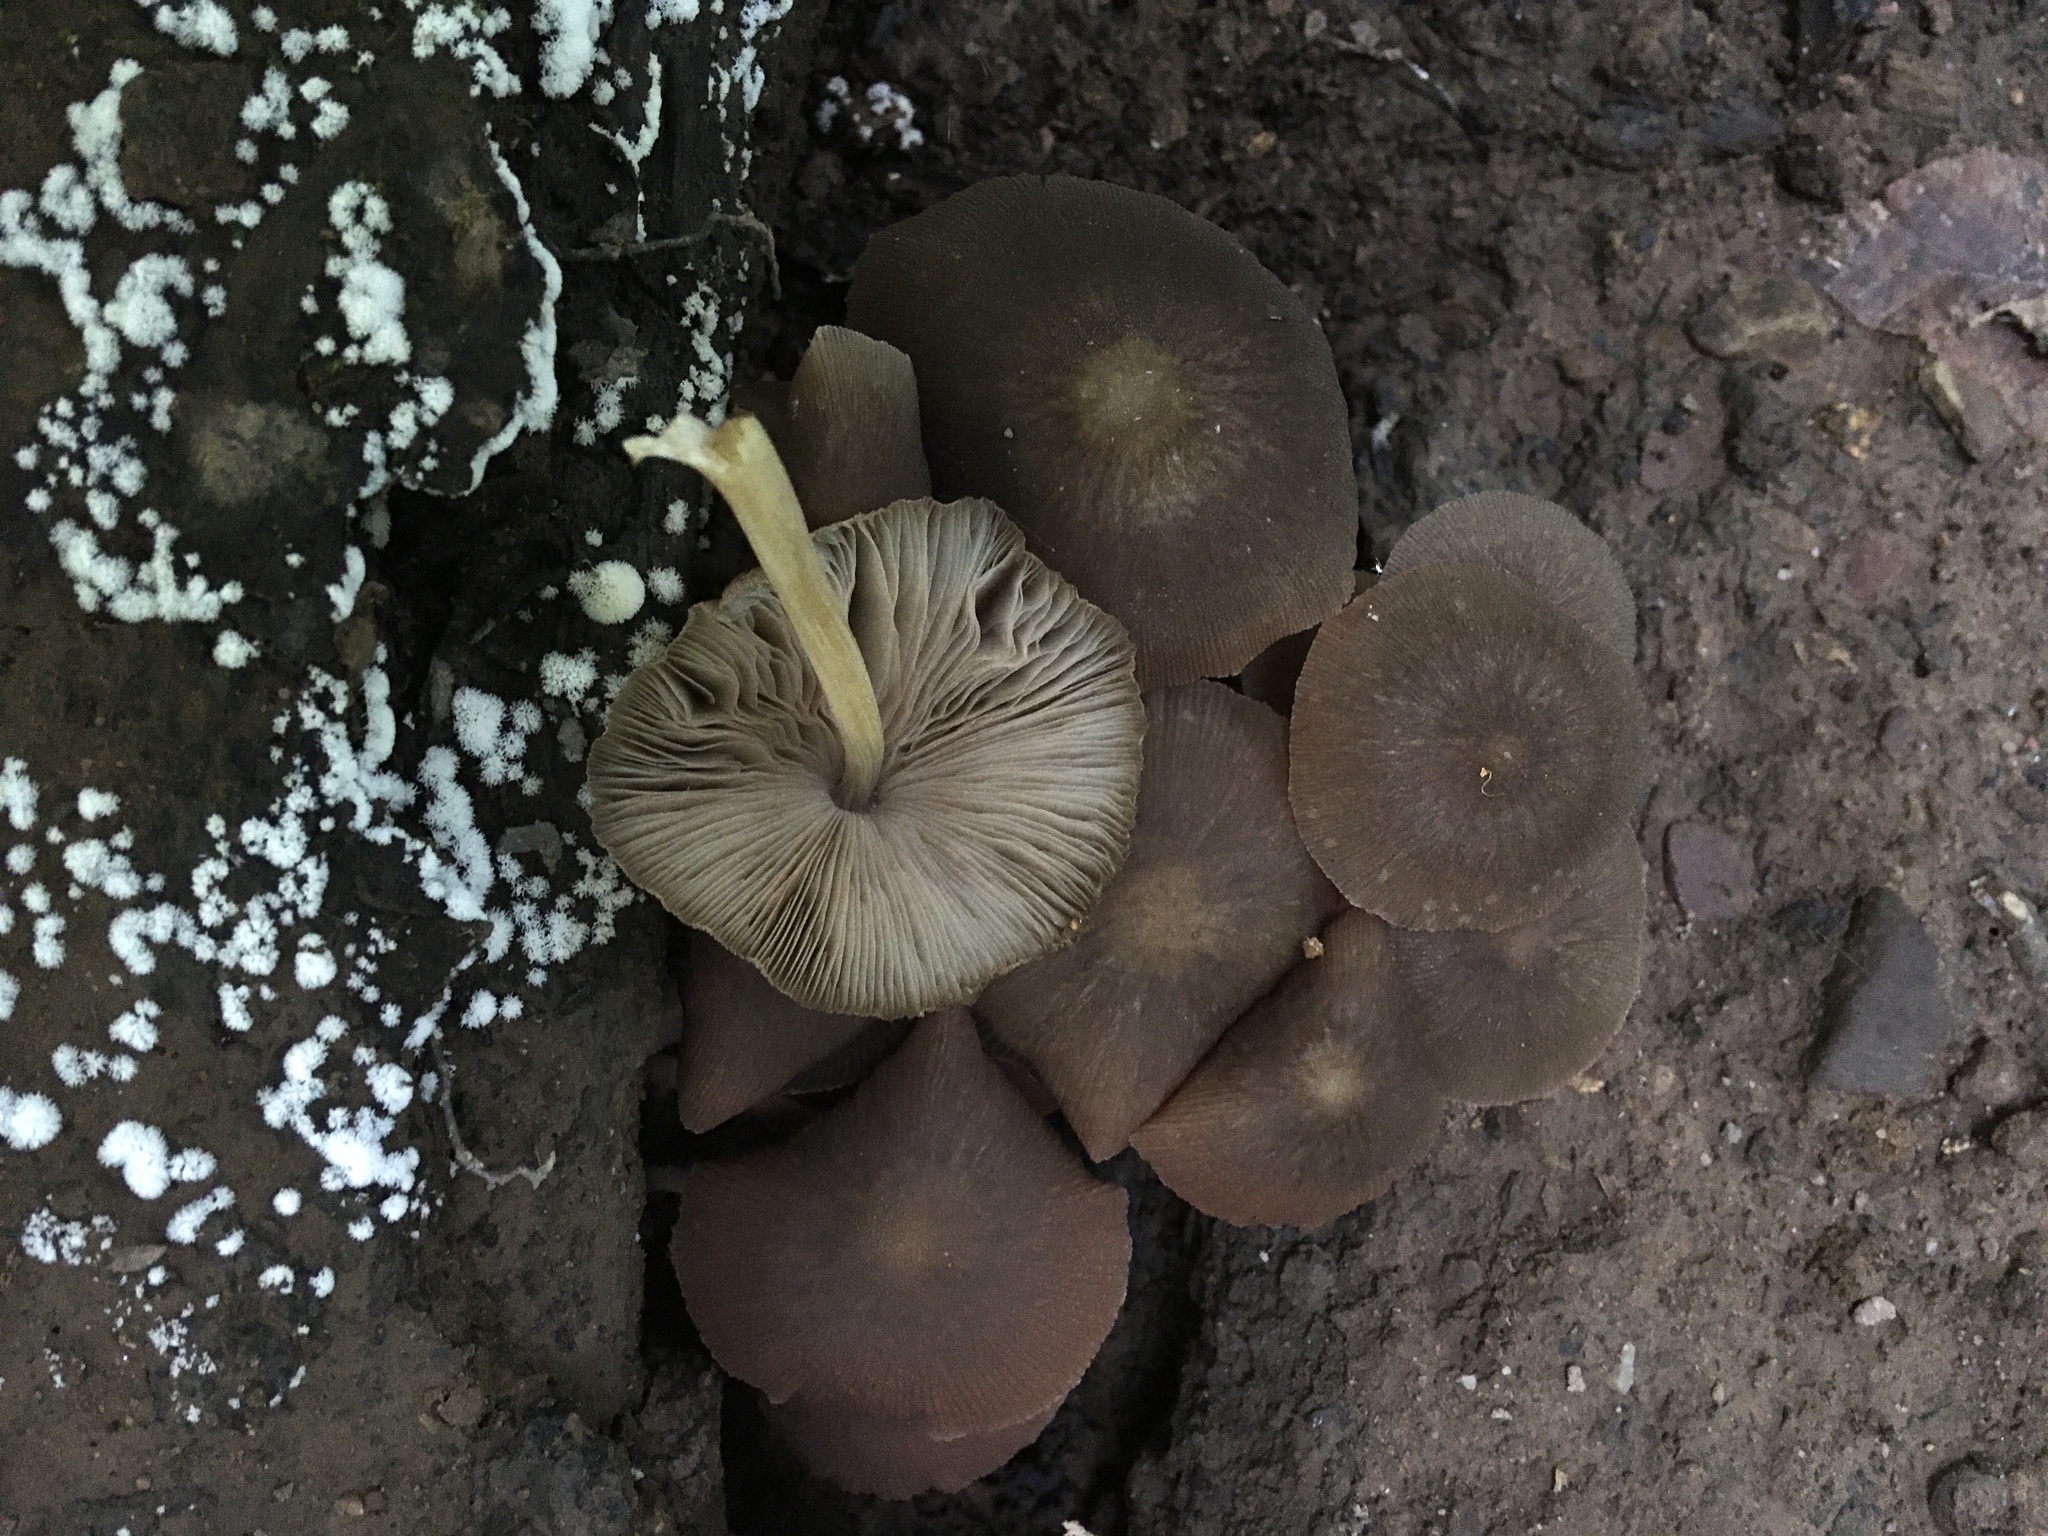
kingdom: Fungi
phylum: Basidiomycota
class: Agaricomycetes
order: Agaricales
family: Pluteaceae
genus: Pluteus
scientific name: Pluteus longistriatus
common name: Pleated pluteus
